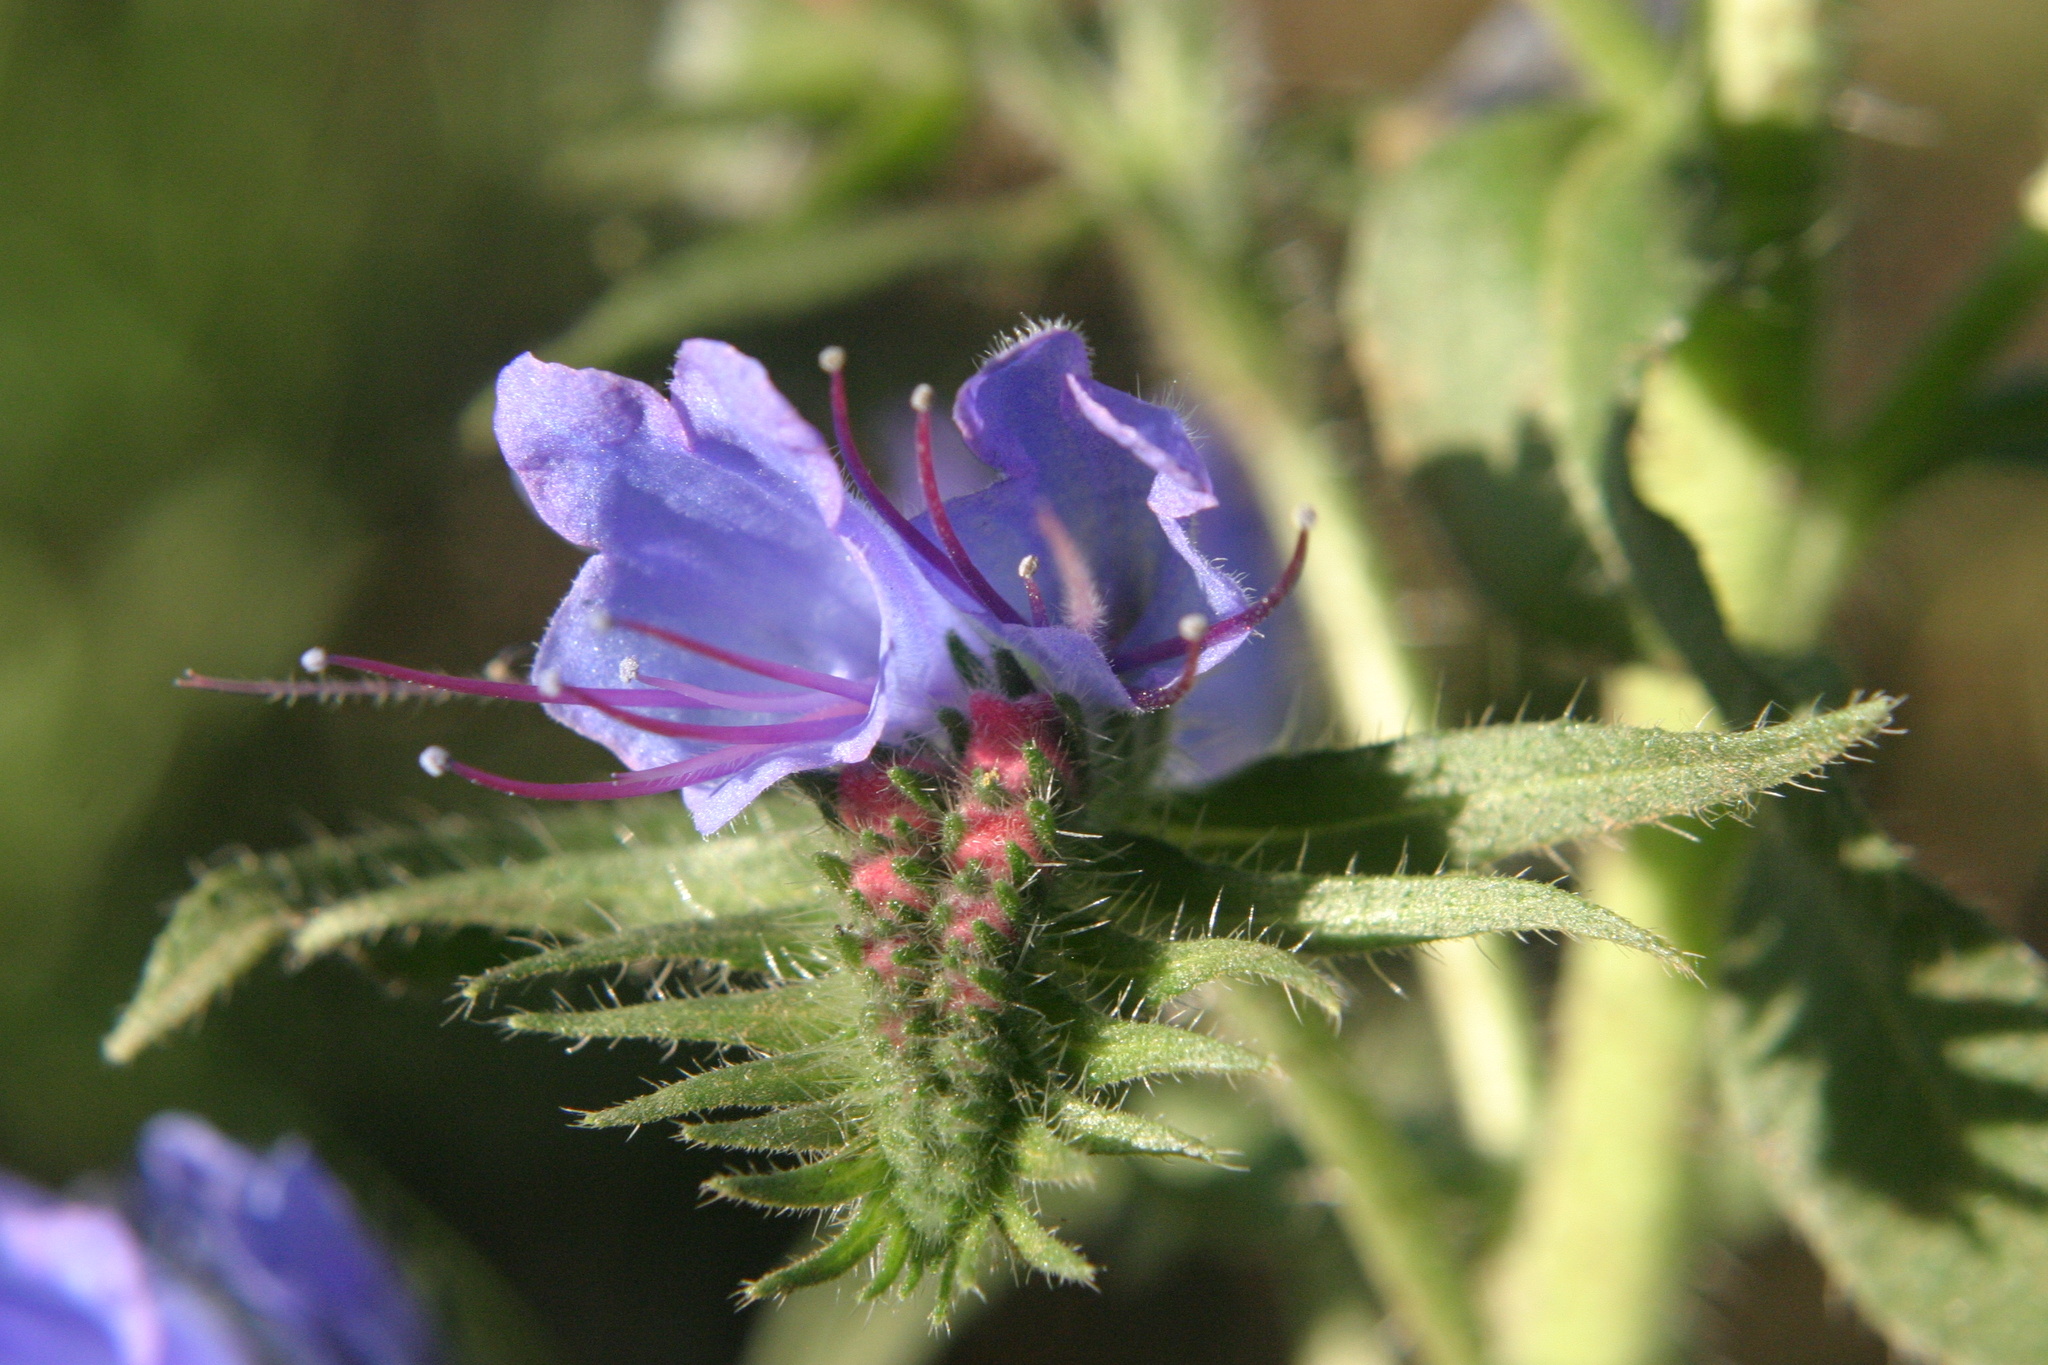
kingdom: Plantae
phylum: Tracheophyta
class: Magnoliopsida
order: Boraginales
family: Boraginaceae
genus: Echium
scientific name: Echium vulgare
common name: Common viper's bugloss
